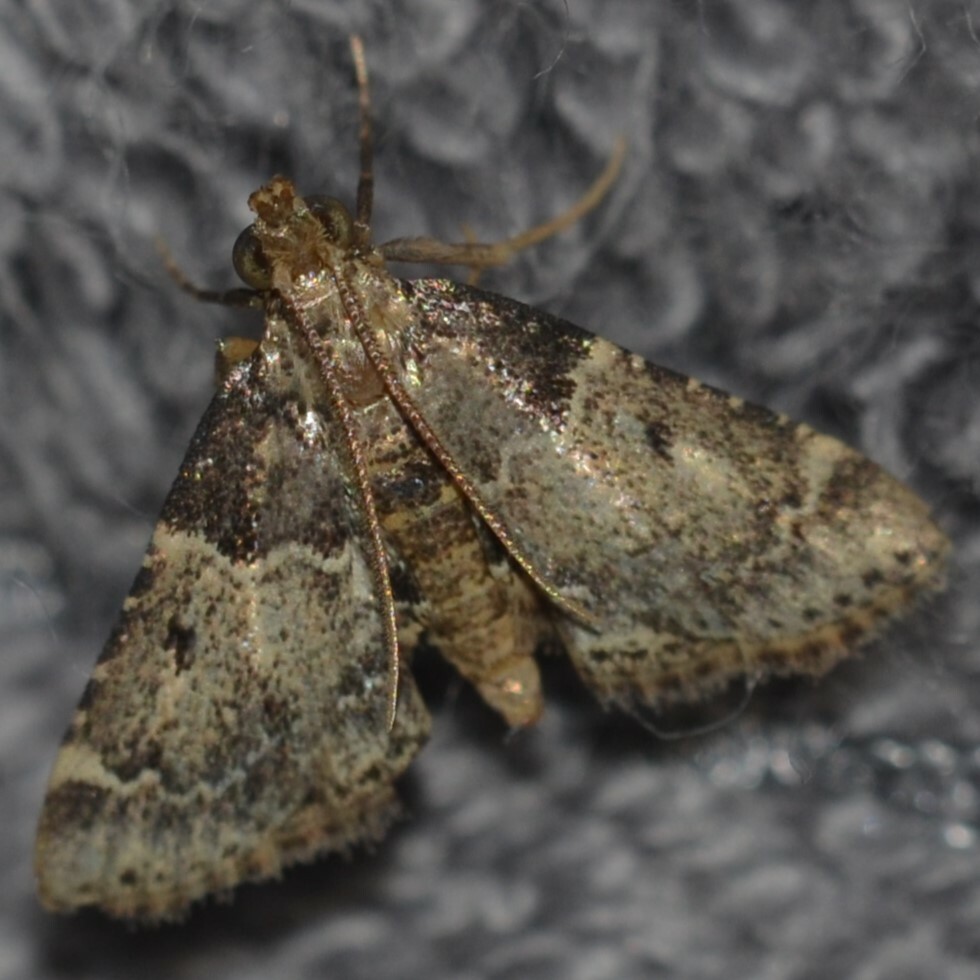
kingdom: Animalia
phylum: Arthropoda
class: Insecta
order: Lepidoptera
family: Pyralidae
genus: Pyralis
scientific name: Pyralis manihotalis
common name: Moth
